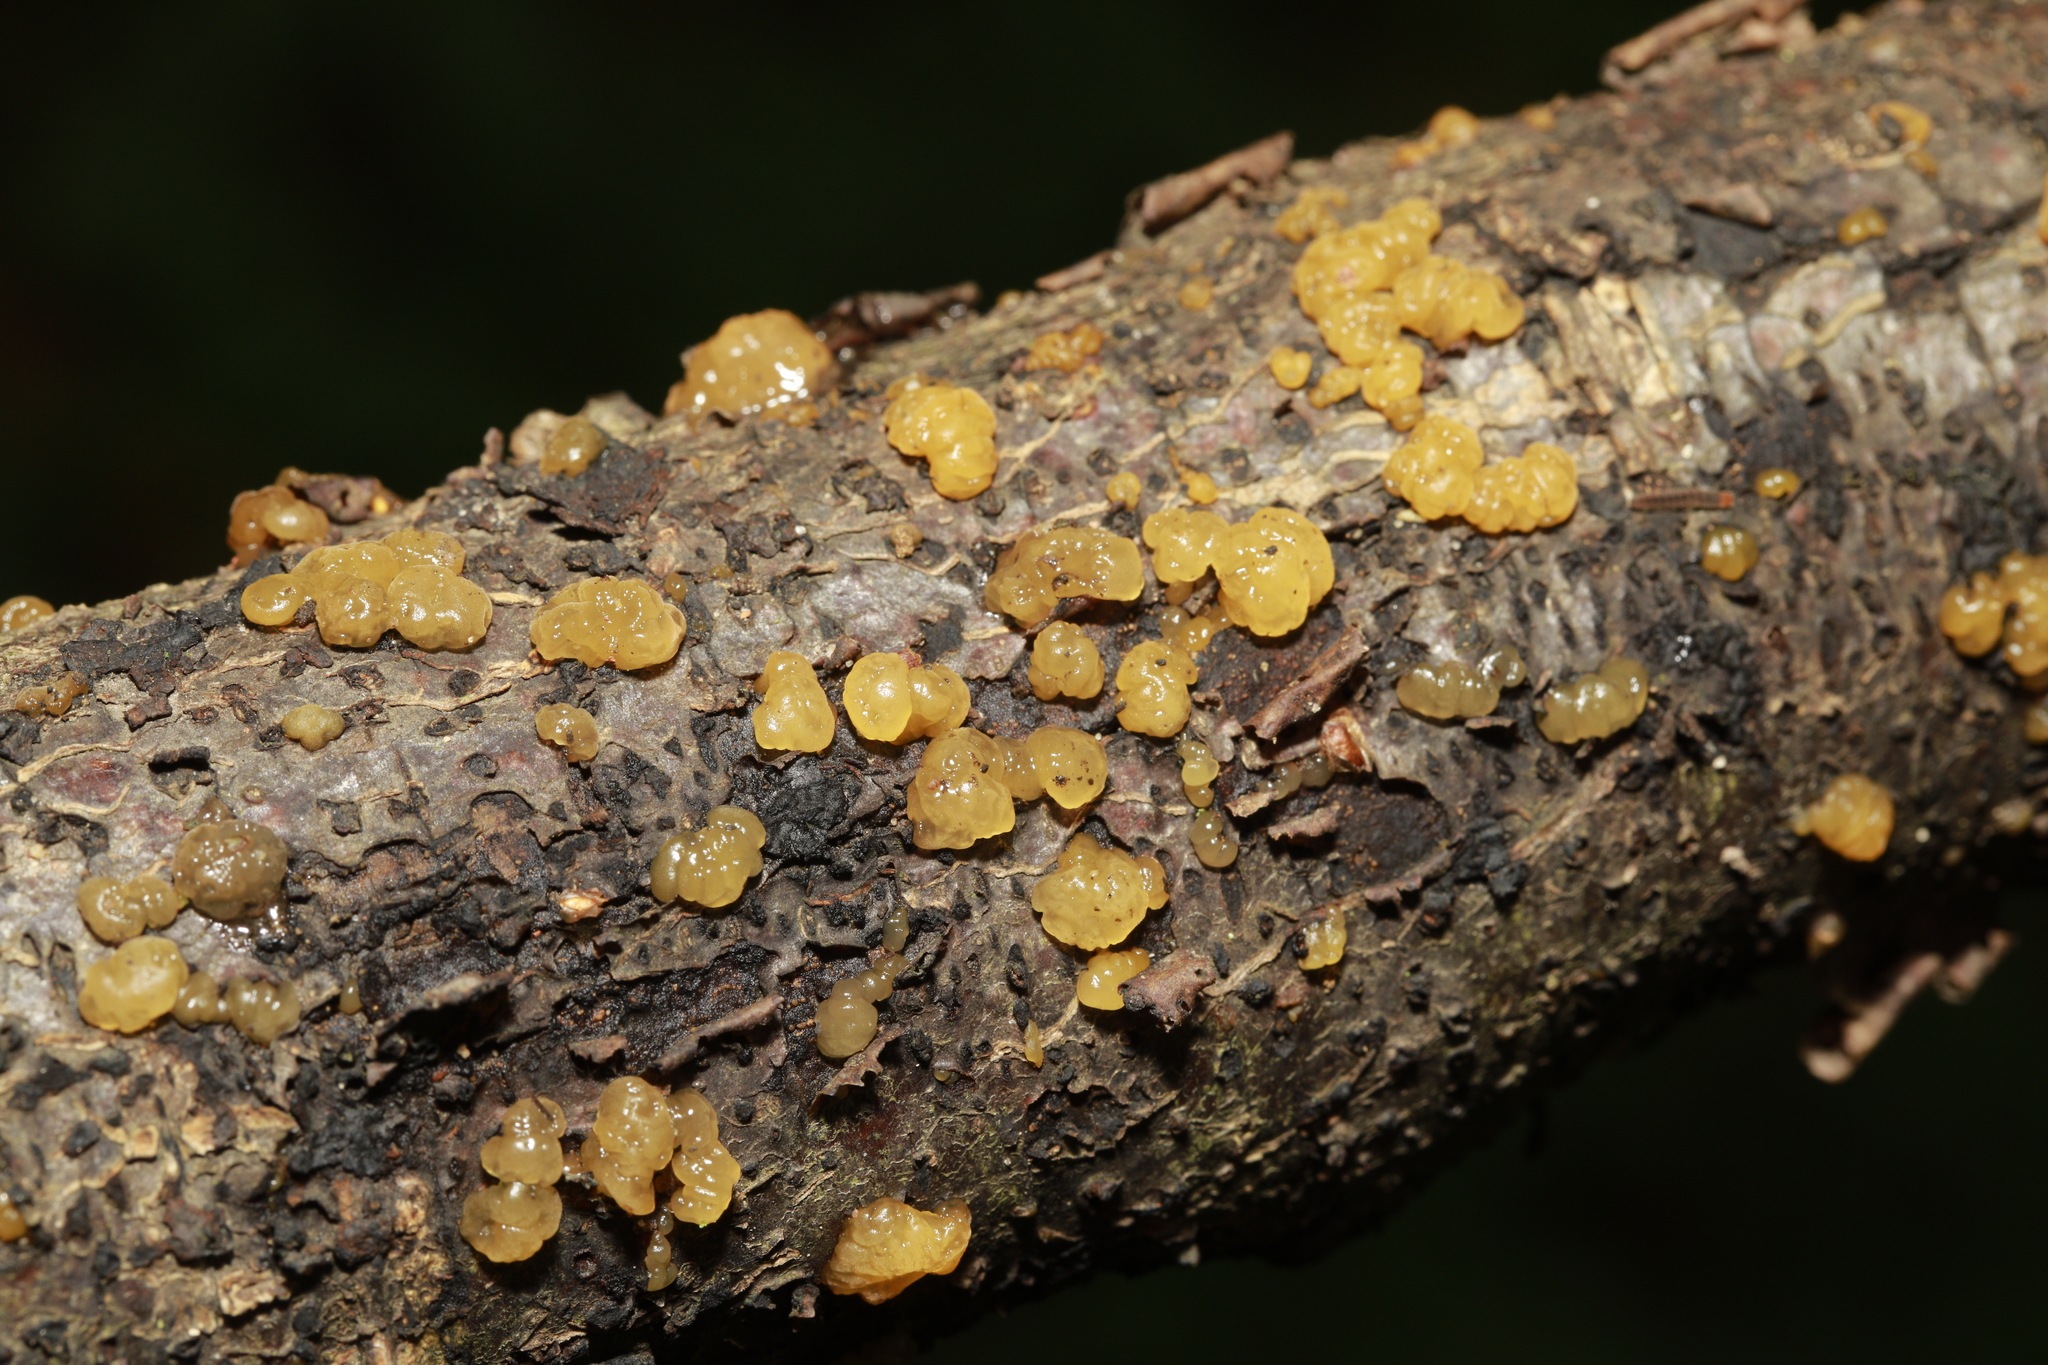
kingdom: Fungi
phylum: Basidiomycota
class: Dacrymycetes
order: Dacrymycetales
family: Dacrymycetaceae
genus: Dacrymyces
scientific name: Dacrymyces stillatus
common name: Common jelly spot
